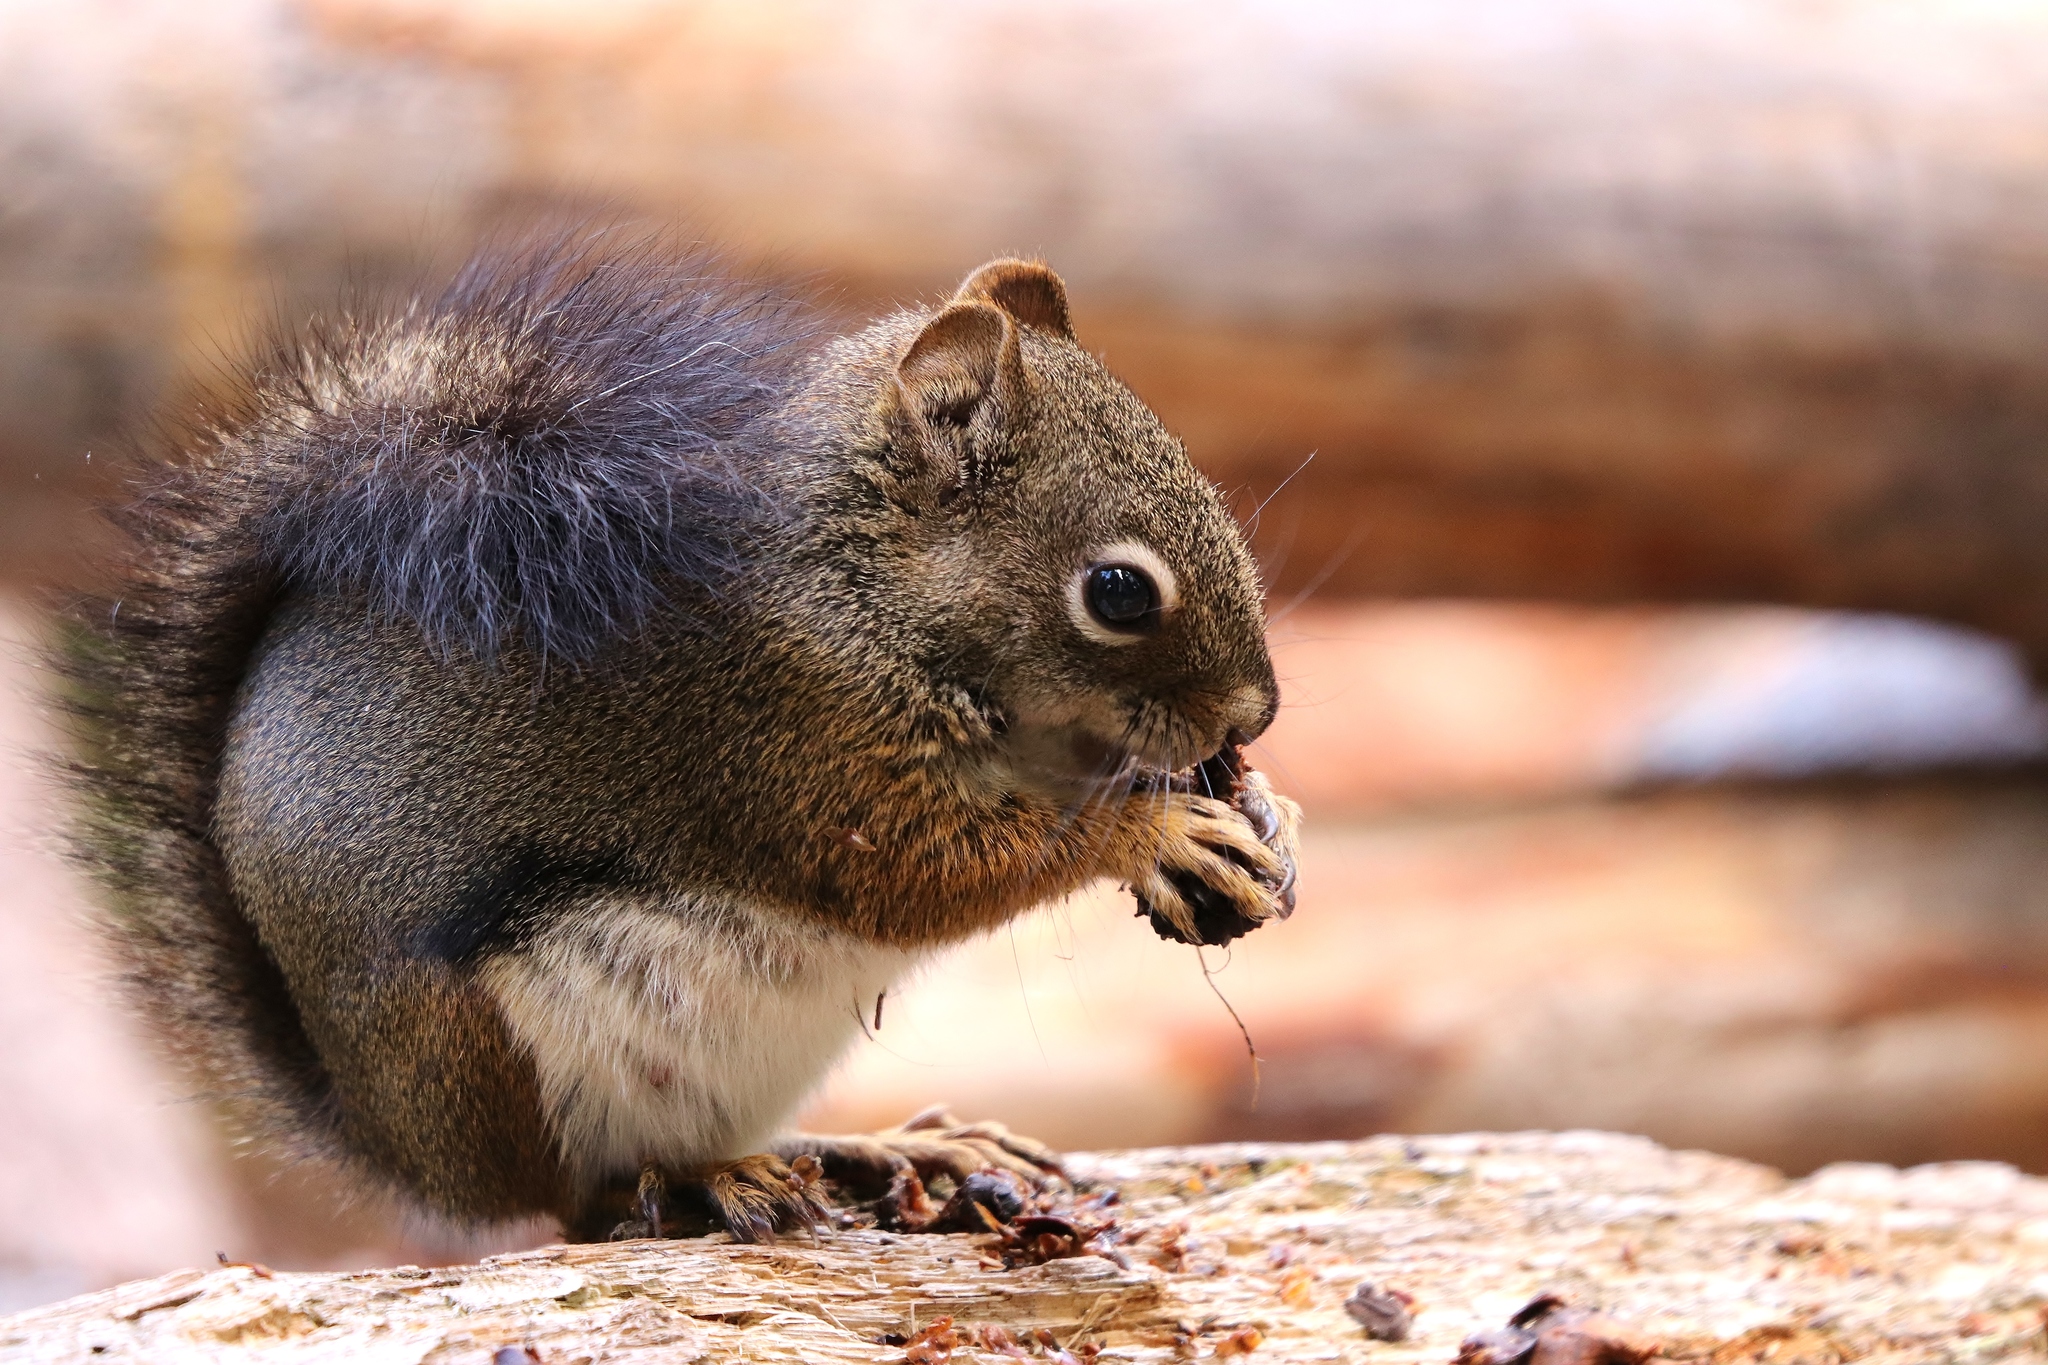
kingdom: Animalia
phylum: Chordata
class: Mammalia
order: Rodentia
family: Sciuridae
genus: Tamiasciurus
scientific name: Tamiasciurus hudsonicus
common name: Red squirrel
